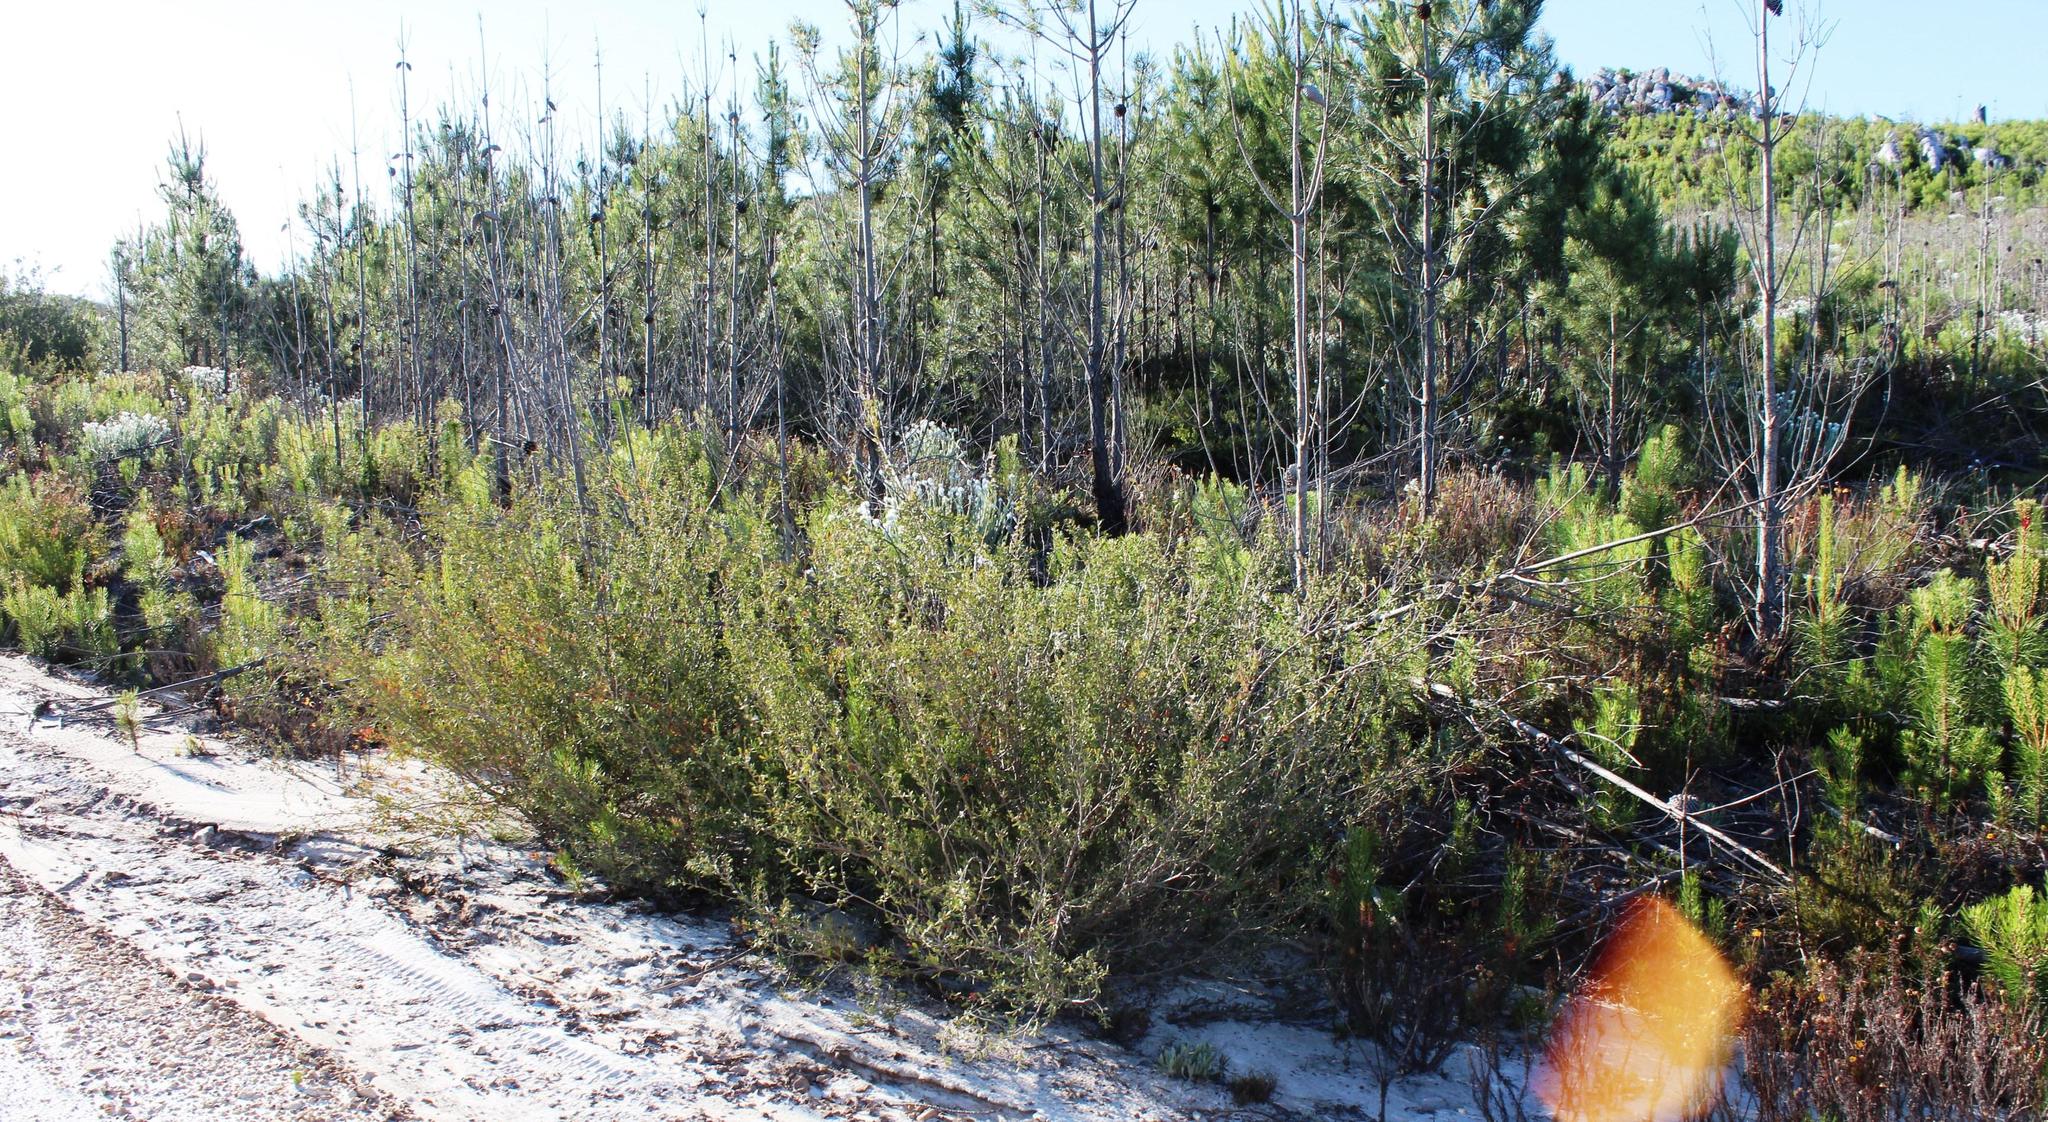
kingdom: Plantae
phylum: Tracheophyta
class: Magnoliopsida
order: Myrtales
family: Myrtaceae
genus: Leptospermum
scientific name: Leptospermum laevigatum
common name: Australian teatree
